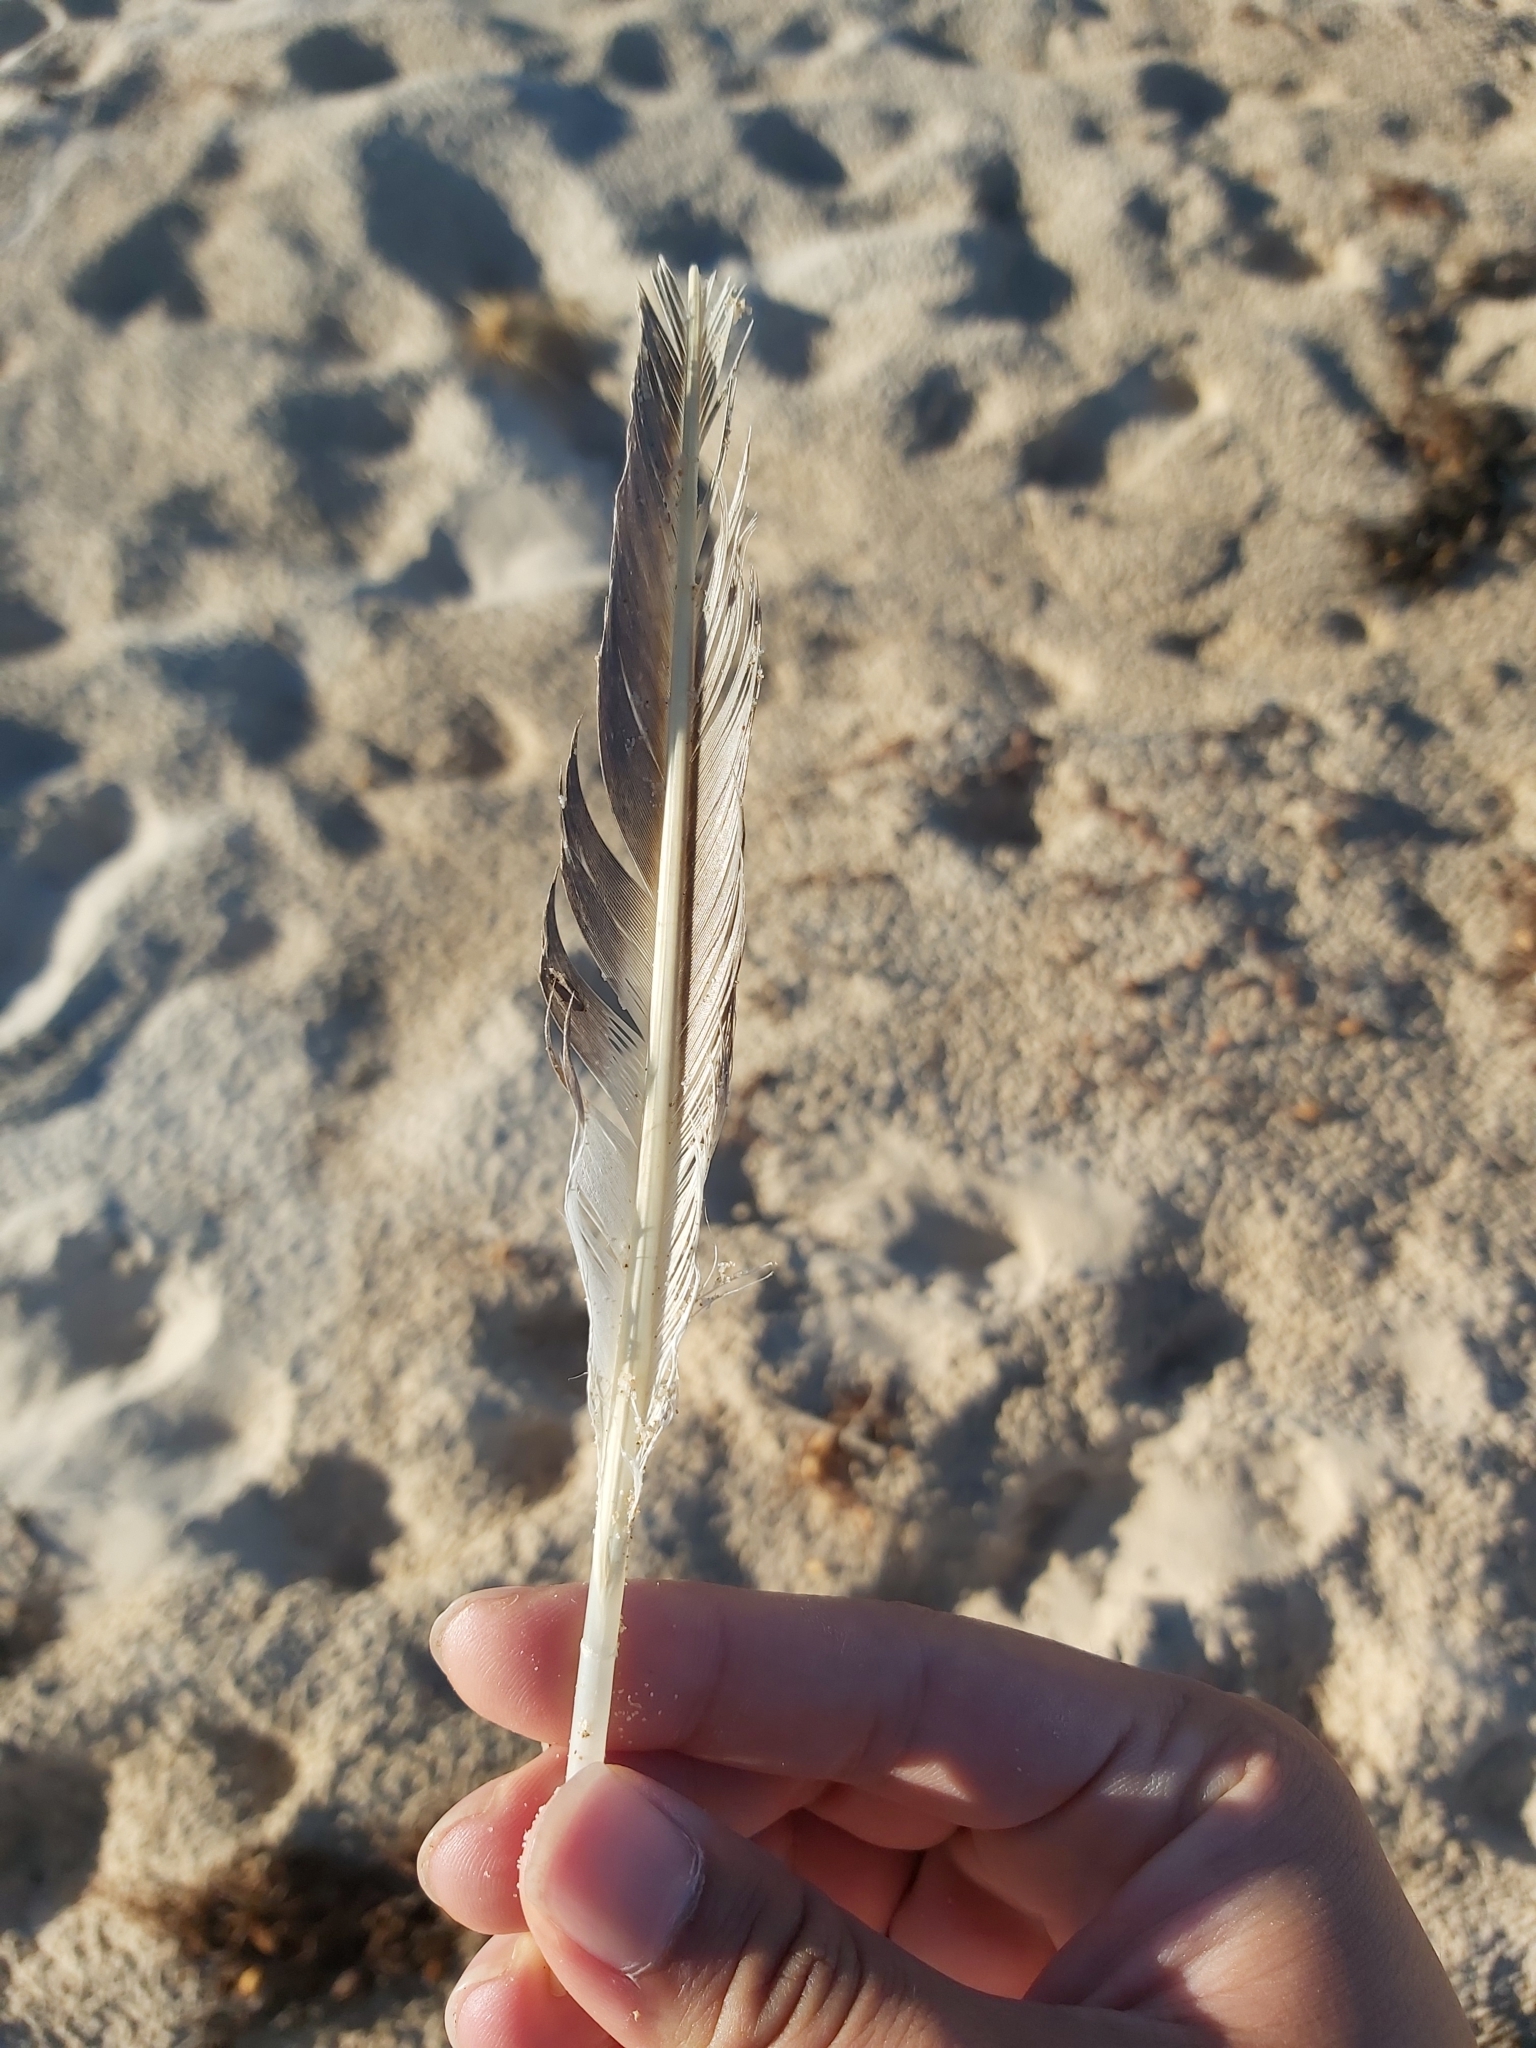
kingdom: Animalia
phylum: Chordata
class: Aves
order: Suliformes
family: Sulidae
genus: Morus
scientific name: Morus serrator
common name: Australasian gannet
